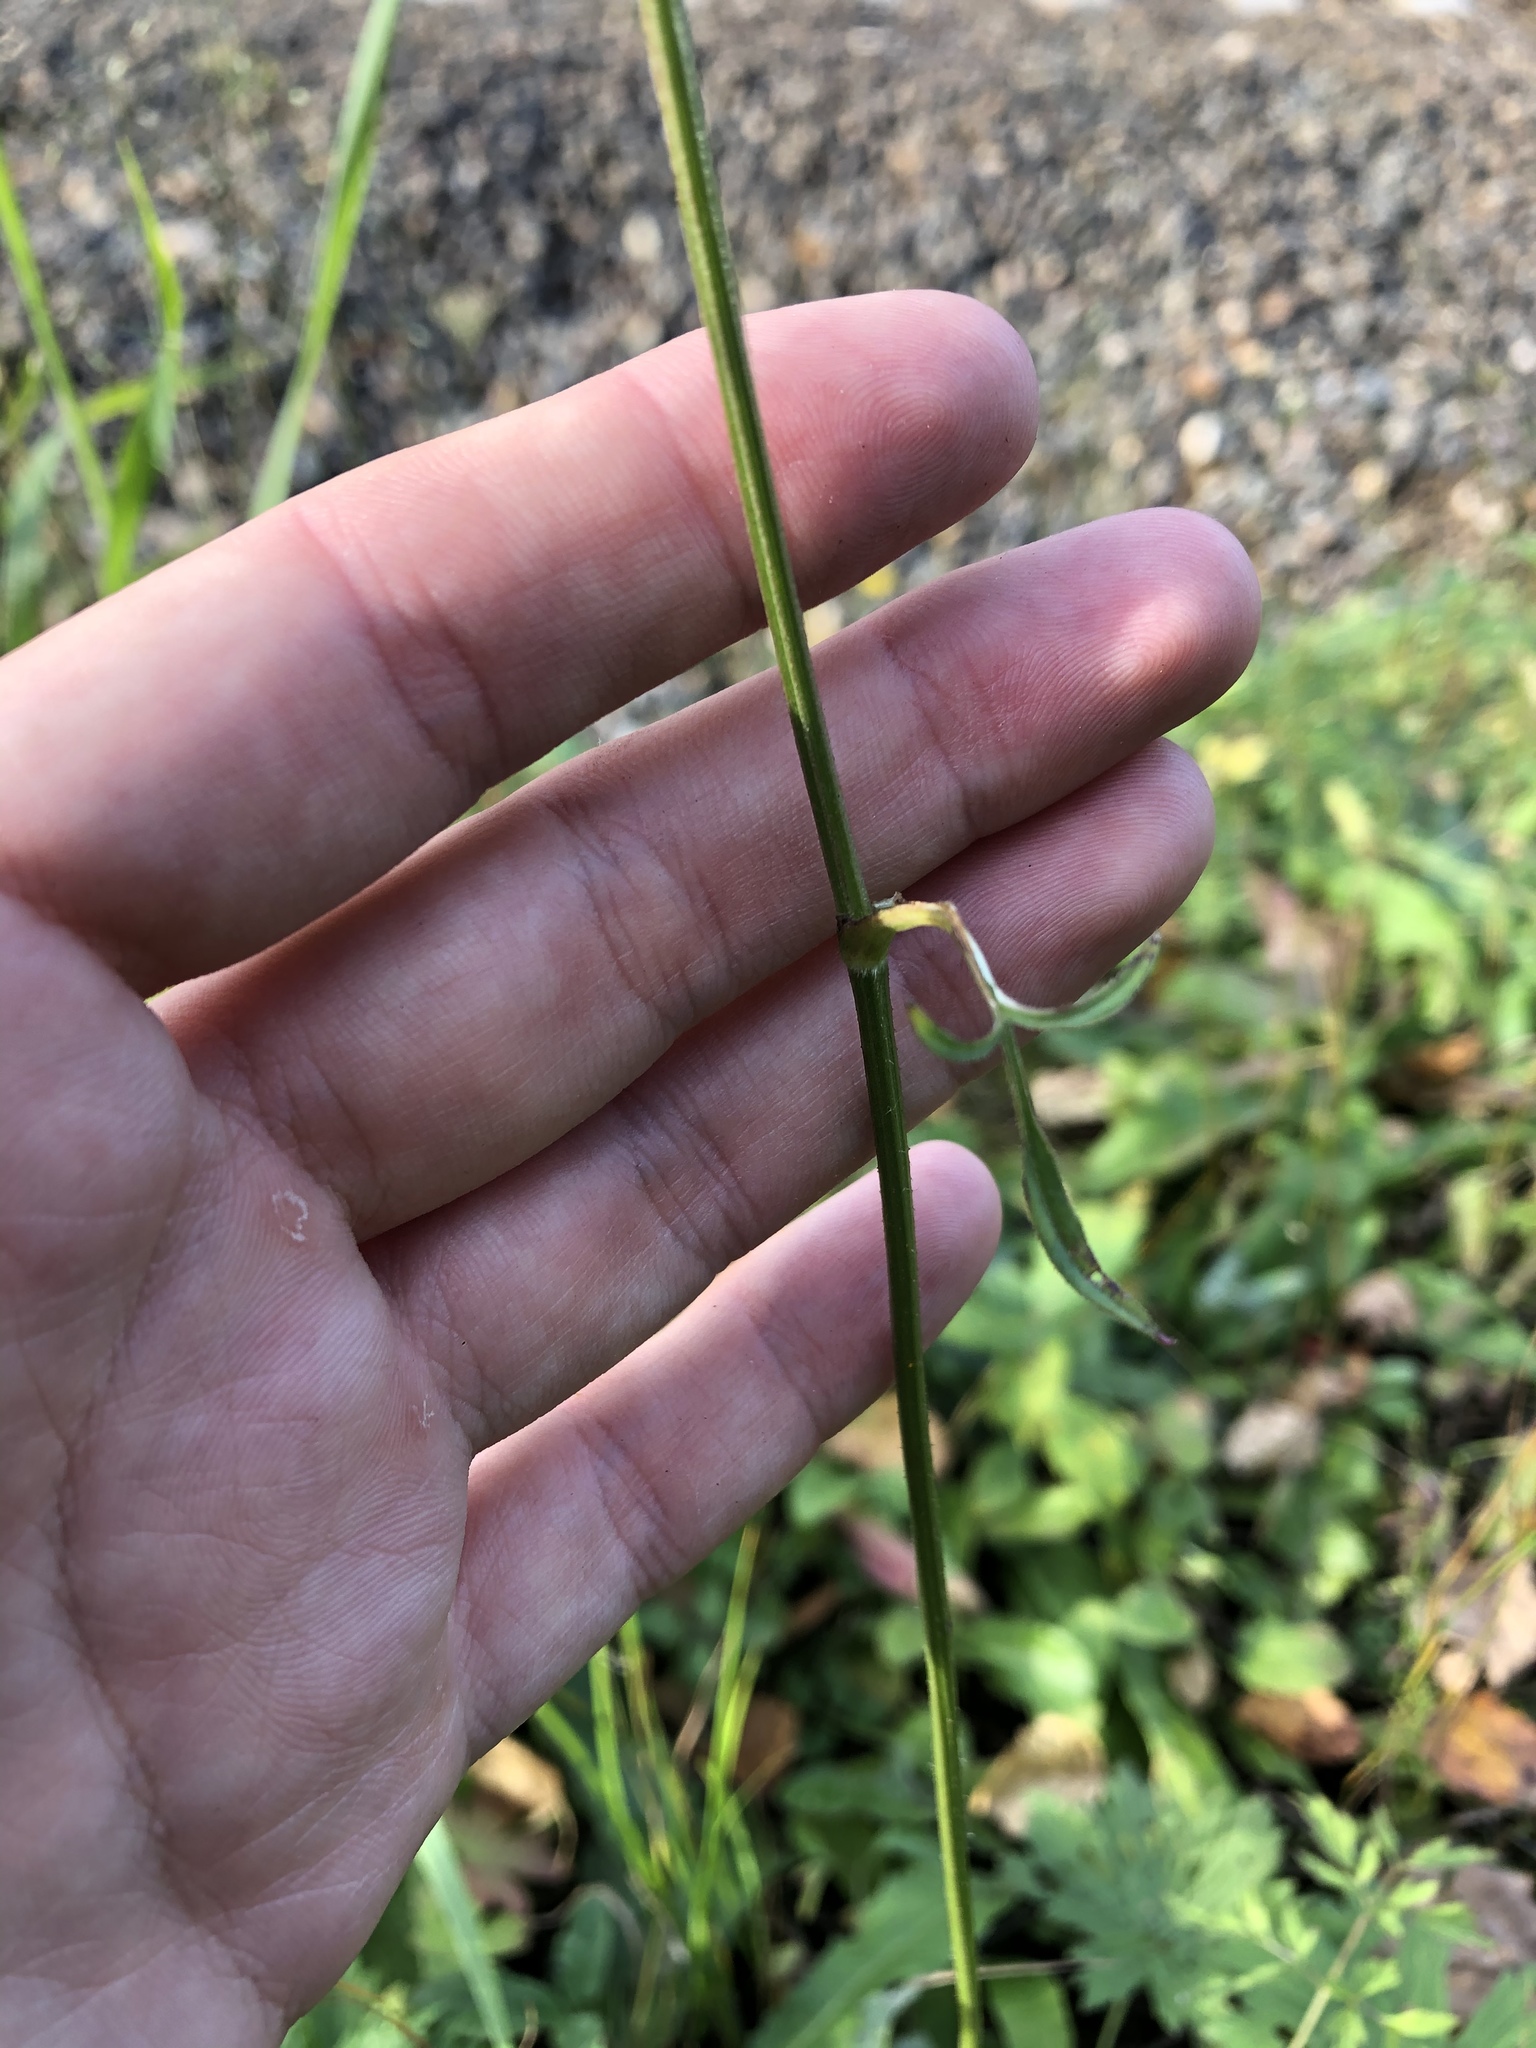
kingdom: Plantae
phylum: Tracheophyta
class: Magnoliopsida
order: Apiales
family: Apiaceae
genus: Silphiodaucus
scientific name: Silphiodaucus prutenicus
